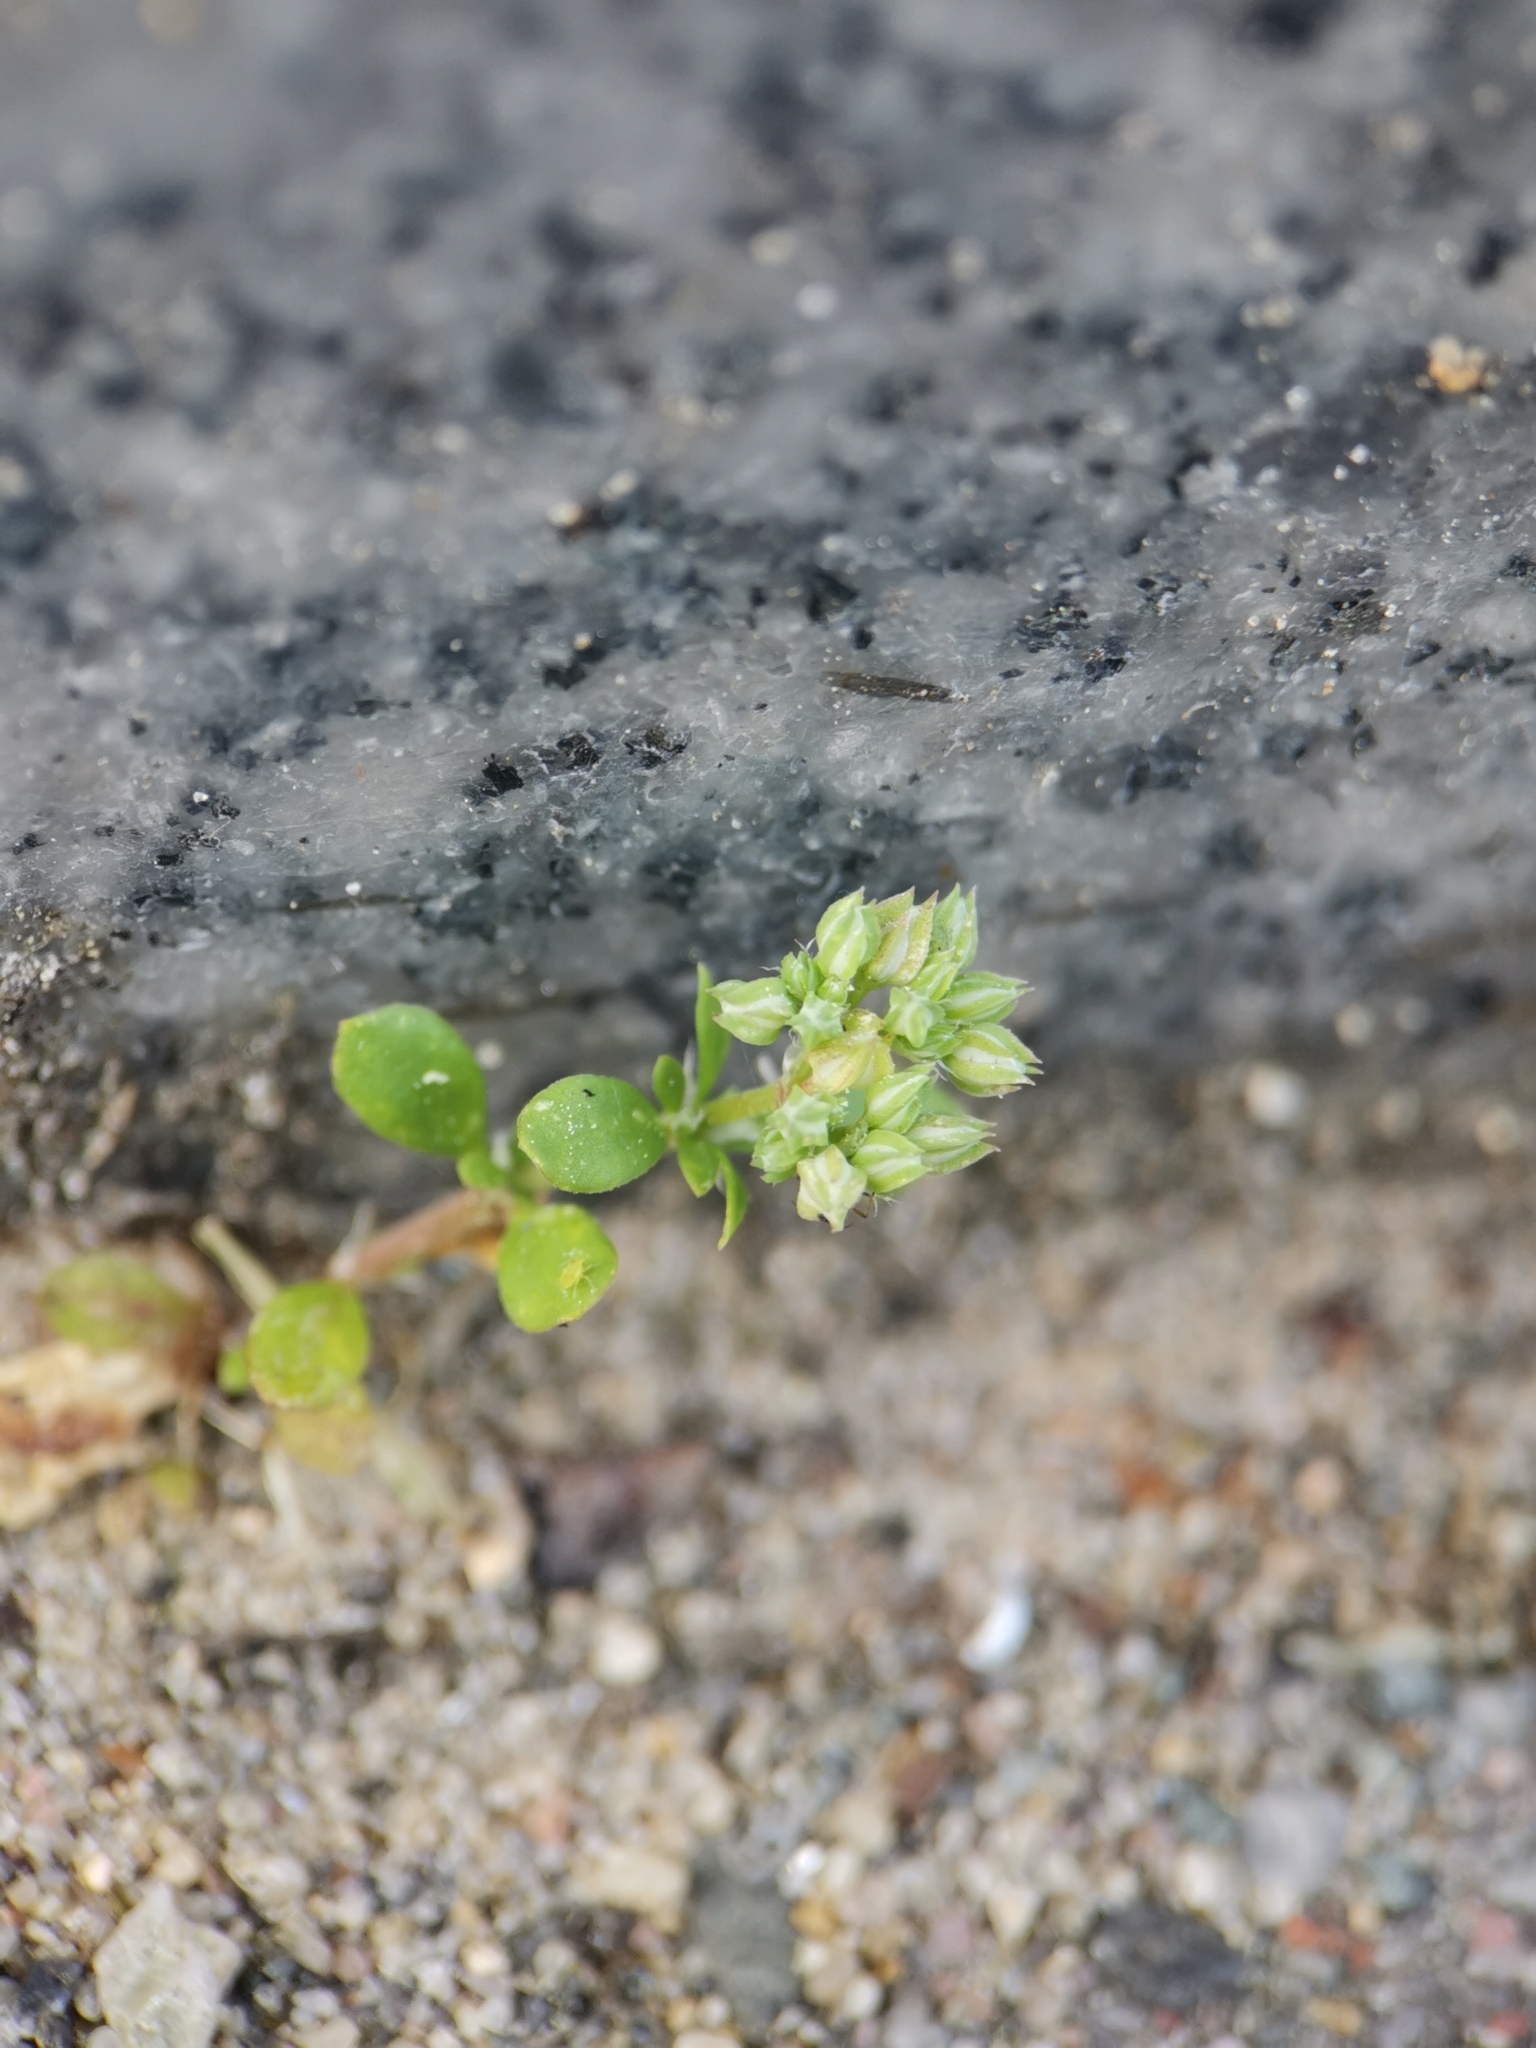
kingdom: Plantae
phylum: Tracheophyta
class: Magnoliopsida
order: Caryophyllales
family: Caryophyllaceae
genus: Polycarpon
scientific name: Polycarpon tetraphyllum
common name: Four-leaved all-seed
